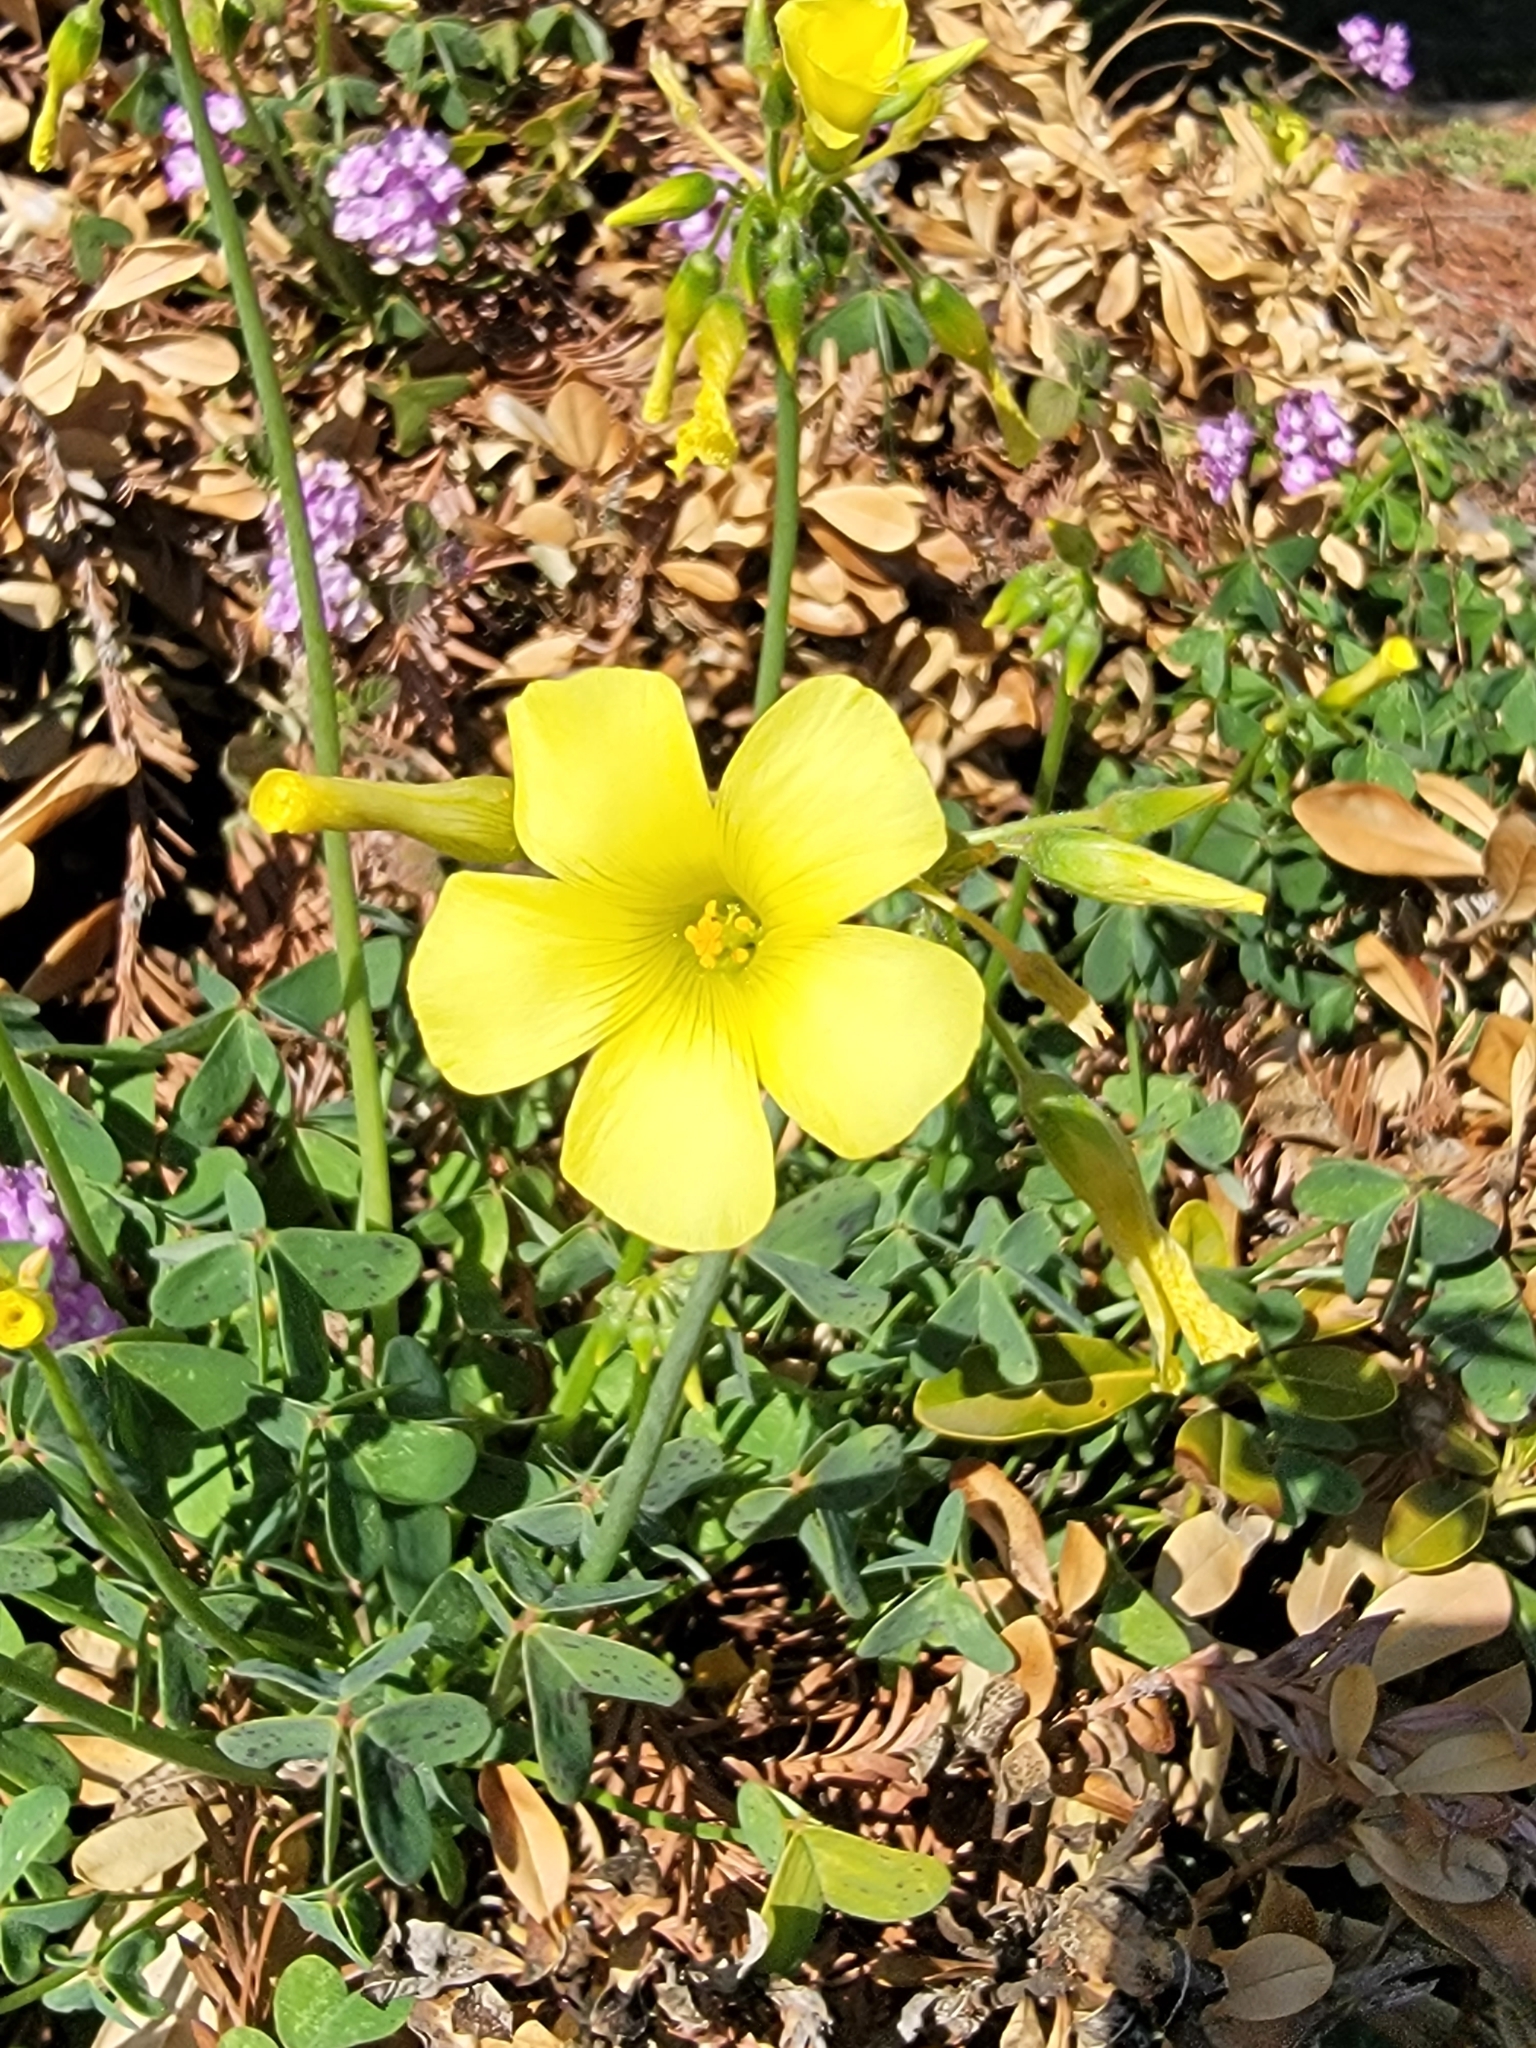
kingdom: Plantae
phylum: Tracheophyta
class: Magnoliopsida
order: Oxalidales
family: Oxalidaceae
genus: Oxalis
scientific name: Oxalis pes-caprae
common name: Bermuda-buttercup
